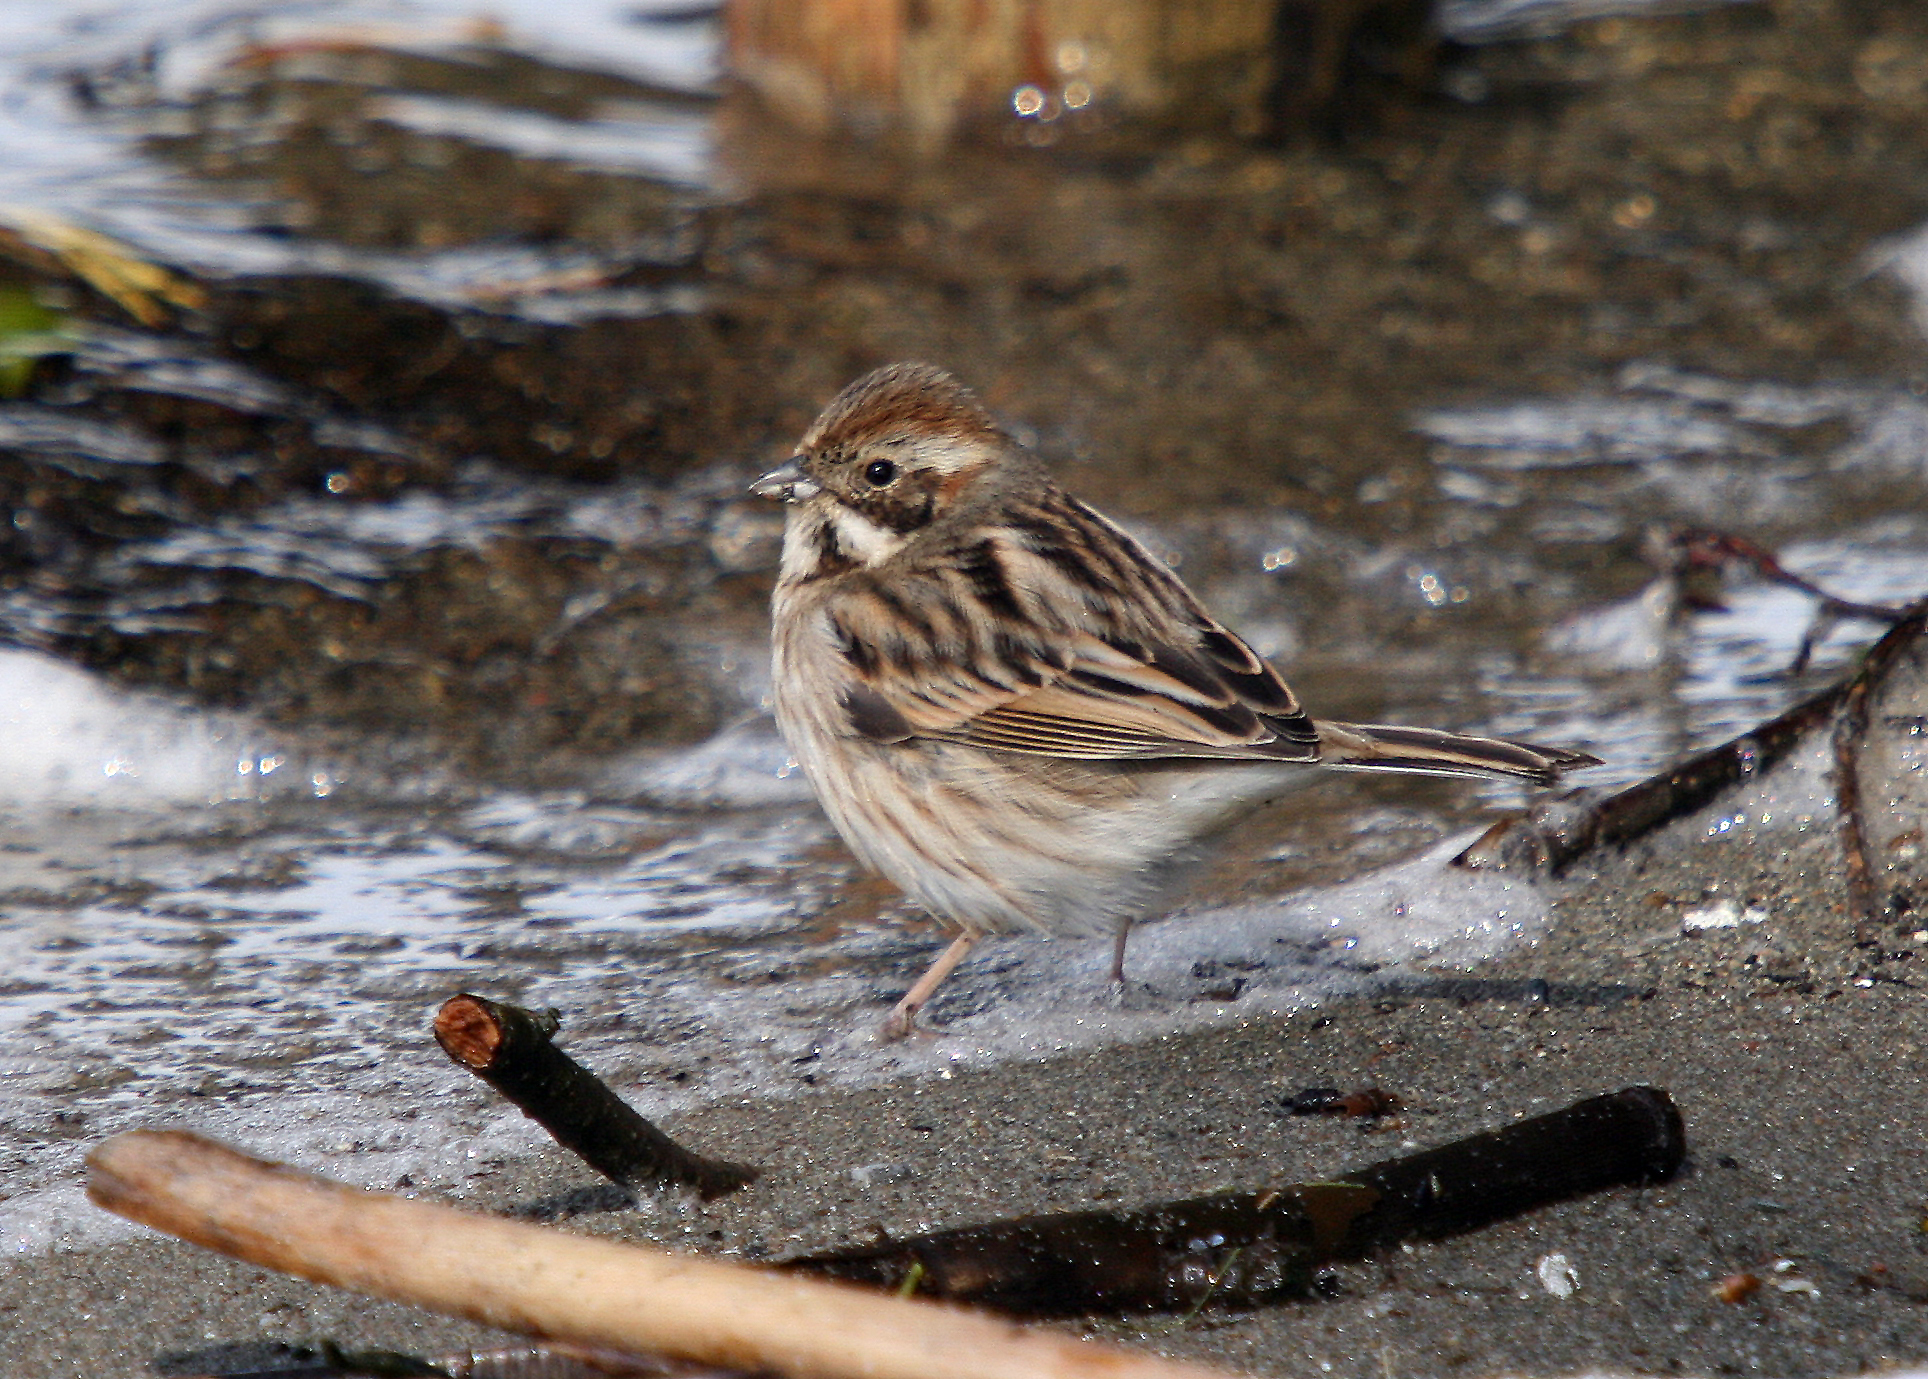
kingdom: Animalia
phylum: Chordata
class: Aves
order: Passeriformes
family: Emberizidae
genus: Emberiza
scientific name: Emberiza schoeniclus
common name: Reed bunting
